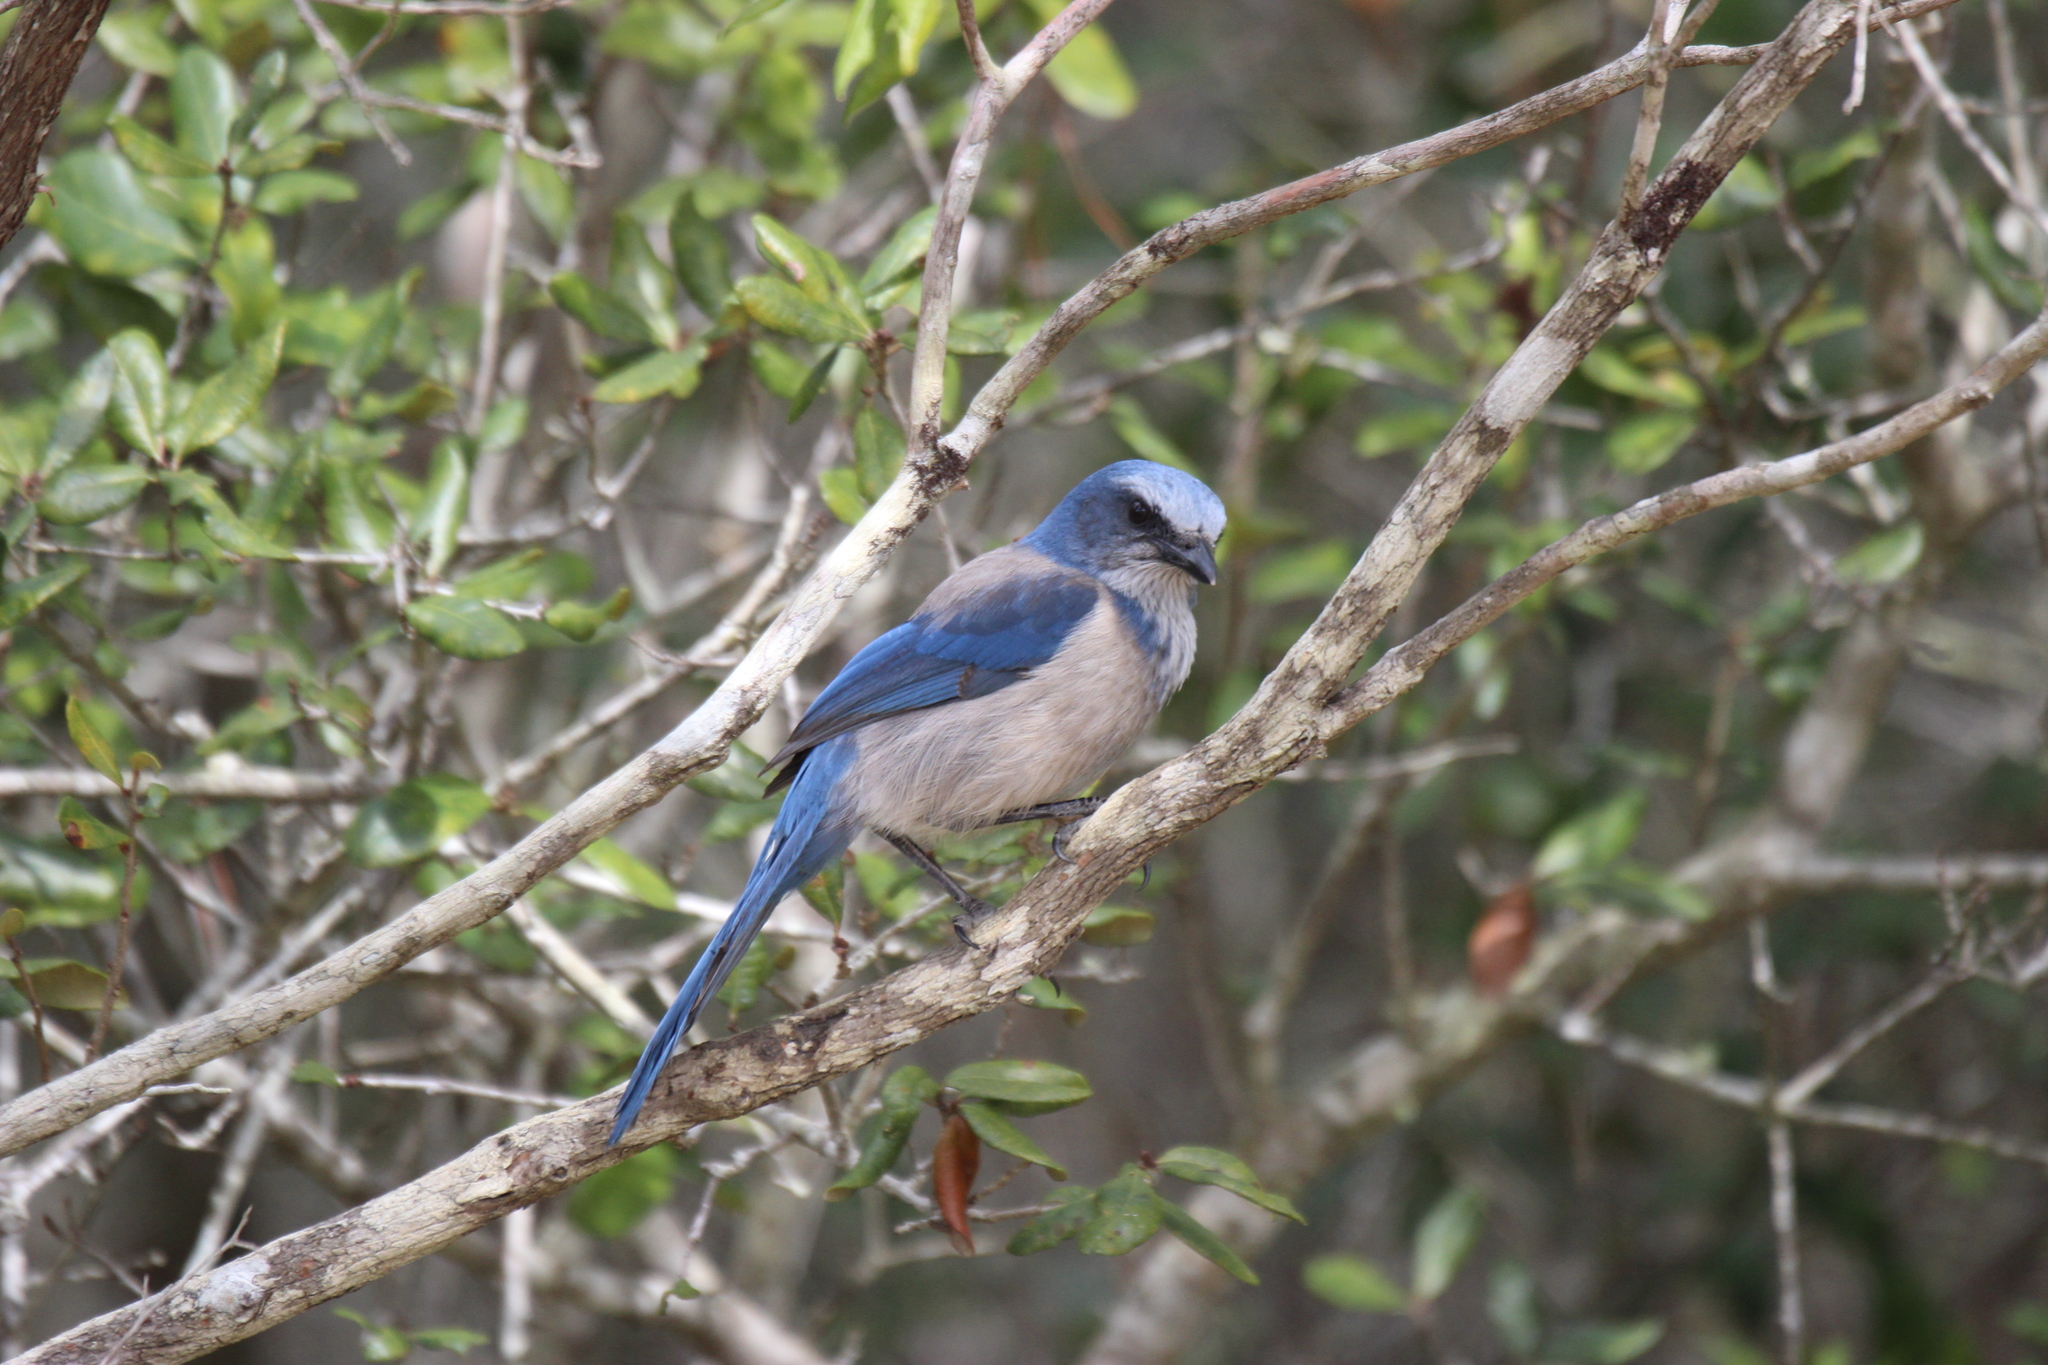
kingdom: Animalia
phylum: Chordata
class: Aves
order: Passeriformes
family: Corvidae
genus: Aphelocoma
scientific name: Aphelocoma coerulescens
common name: Florida scrub jay
